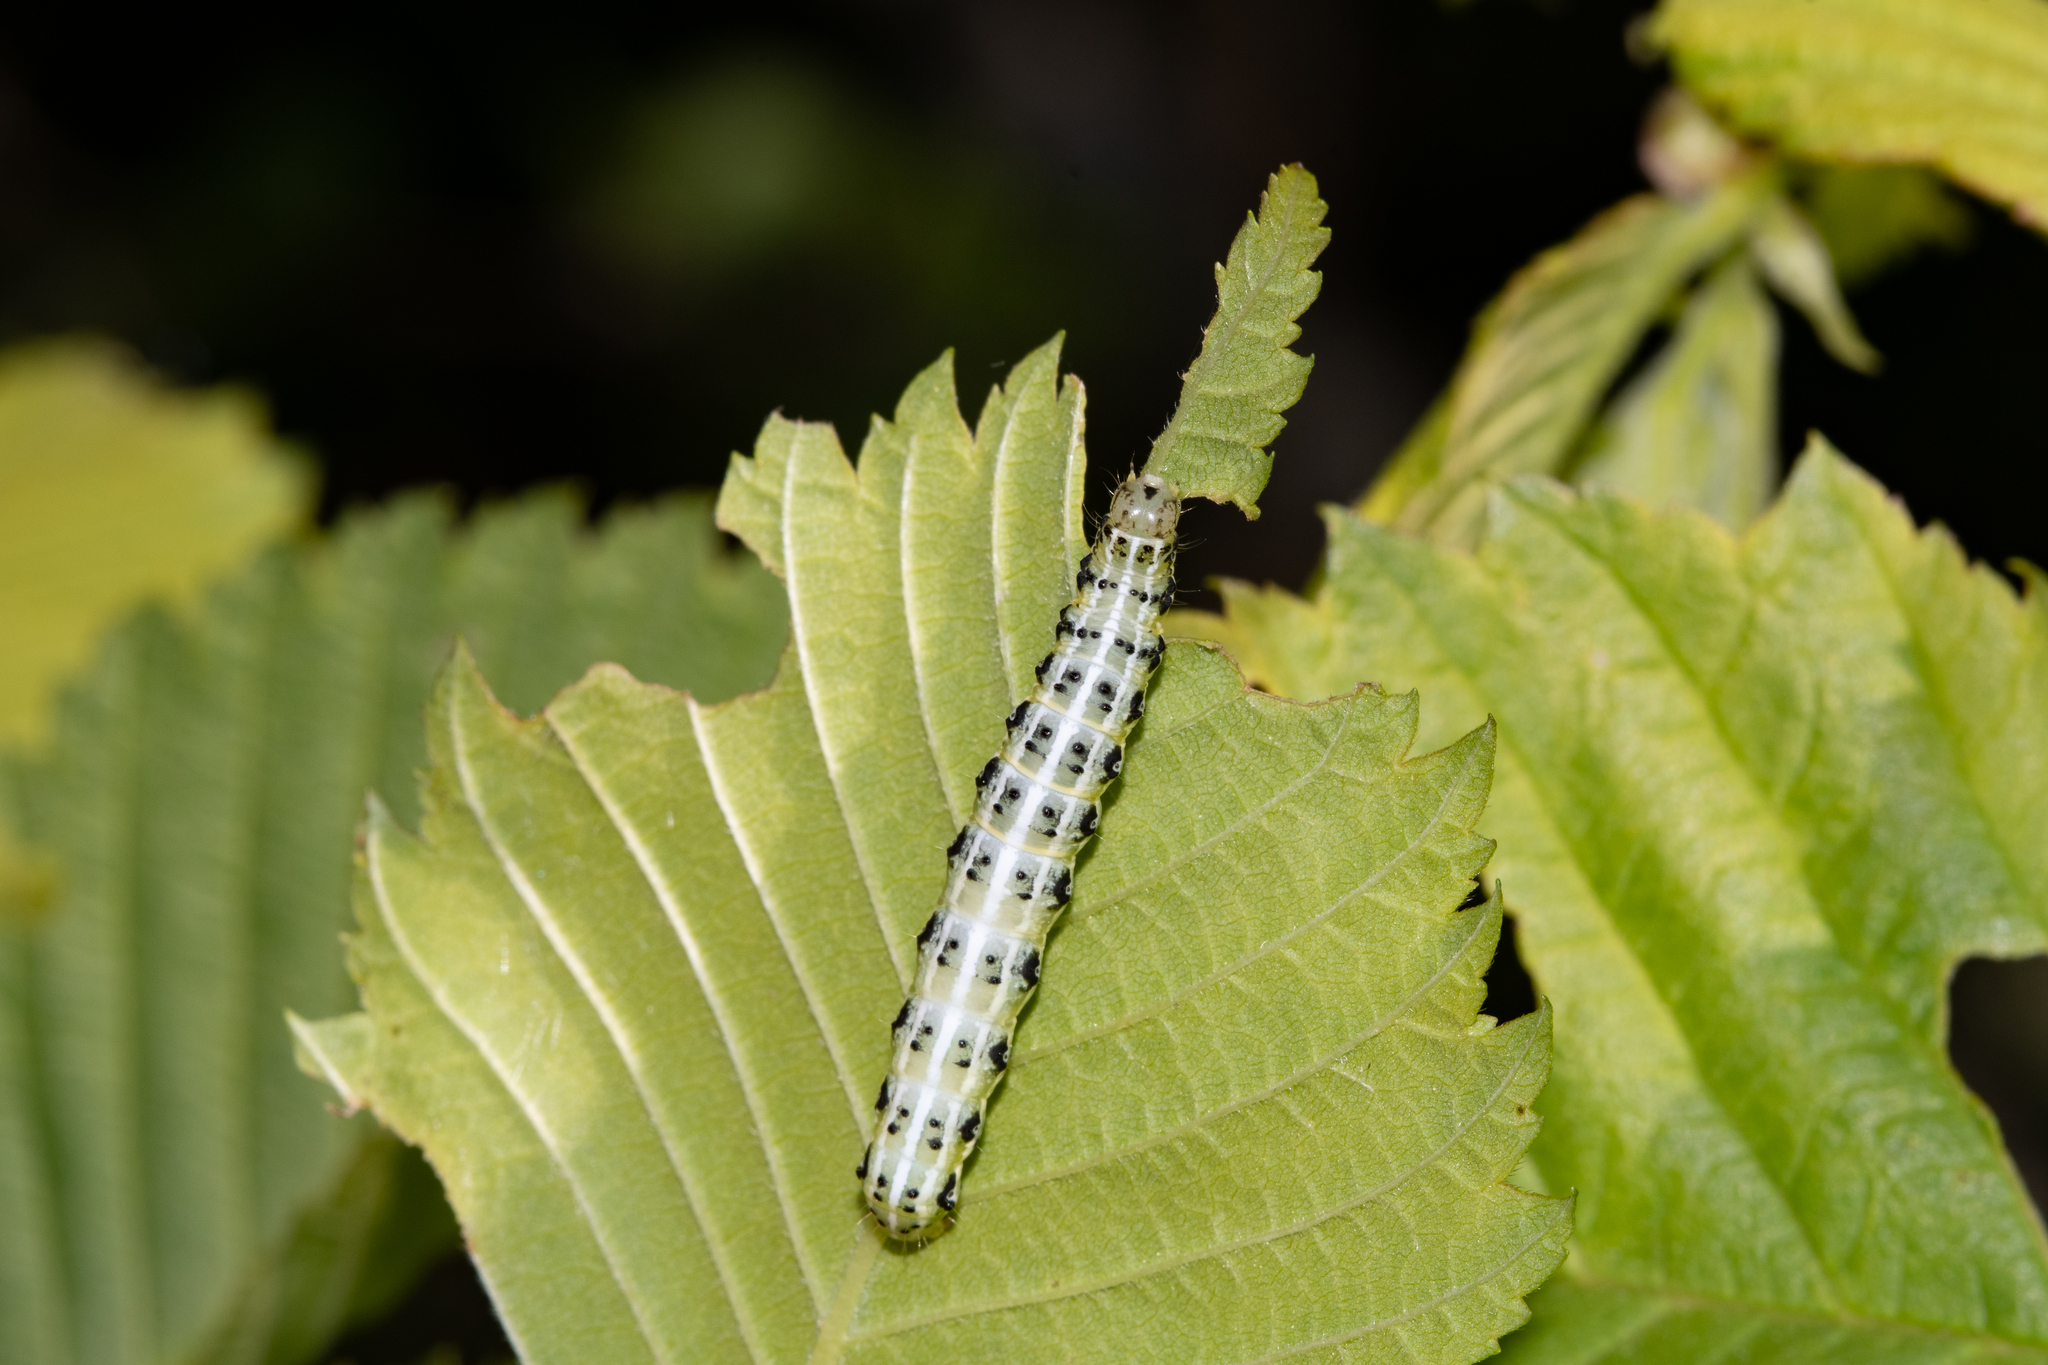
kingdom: Animalia
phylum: Arthropoda
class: Insecta
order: Lepidoptera
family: Noctuidae
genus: Cosmia
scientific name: Cosmia affinis
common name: Lesser-spotted pinion
